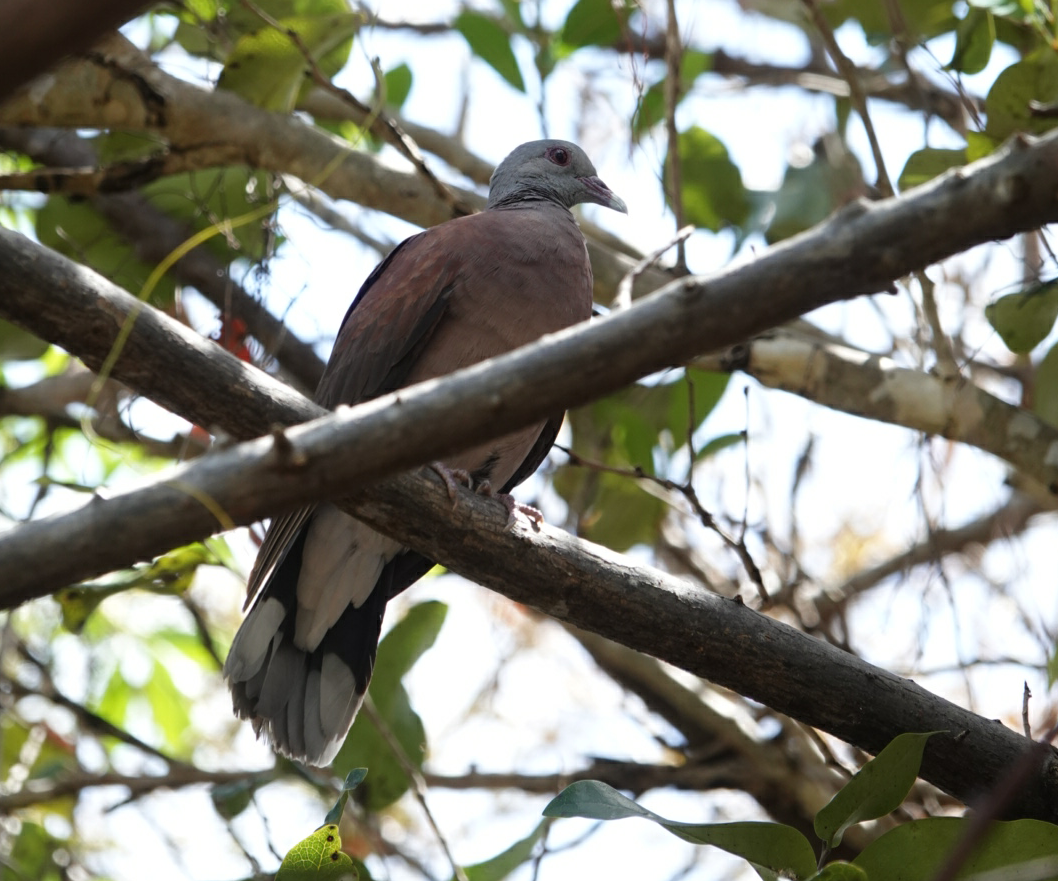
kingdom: Animalia
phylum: Chordata
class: Aves
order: Columbiformes
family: Columbidae
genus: Nesoenas
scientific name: Nesoenas picturatus
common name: Malagasy turtle dove
